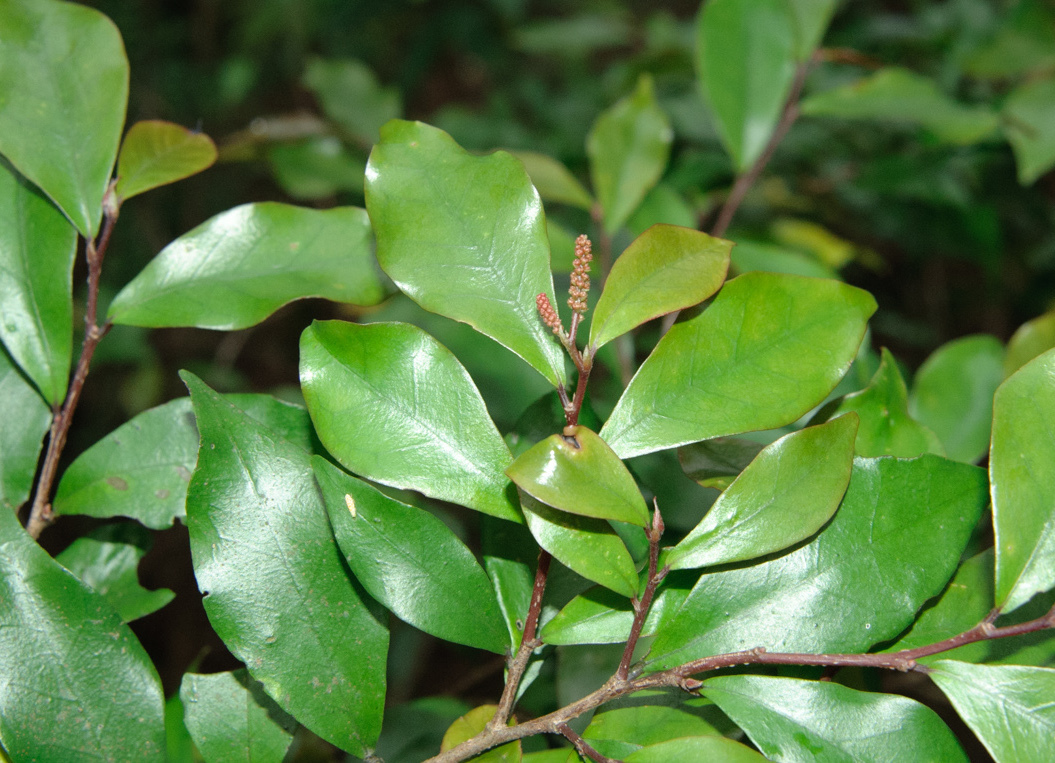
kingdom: Plantae
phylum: Tracheophyta
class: Magnoliopsida
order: Malpighiales
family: Phyllanthaceae
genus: Antidesma
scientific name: Antidesma japonicum
